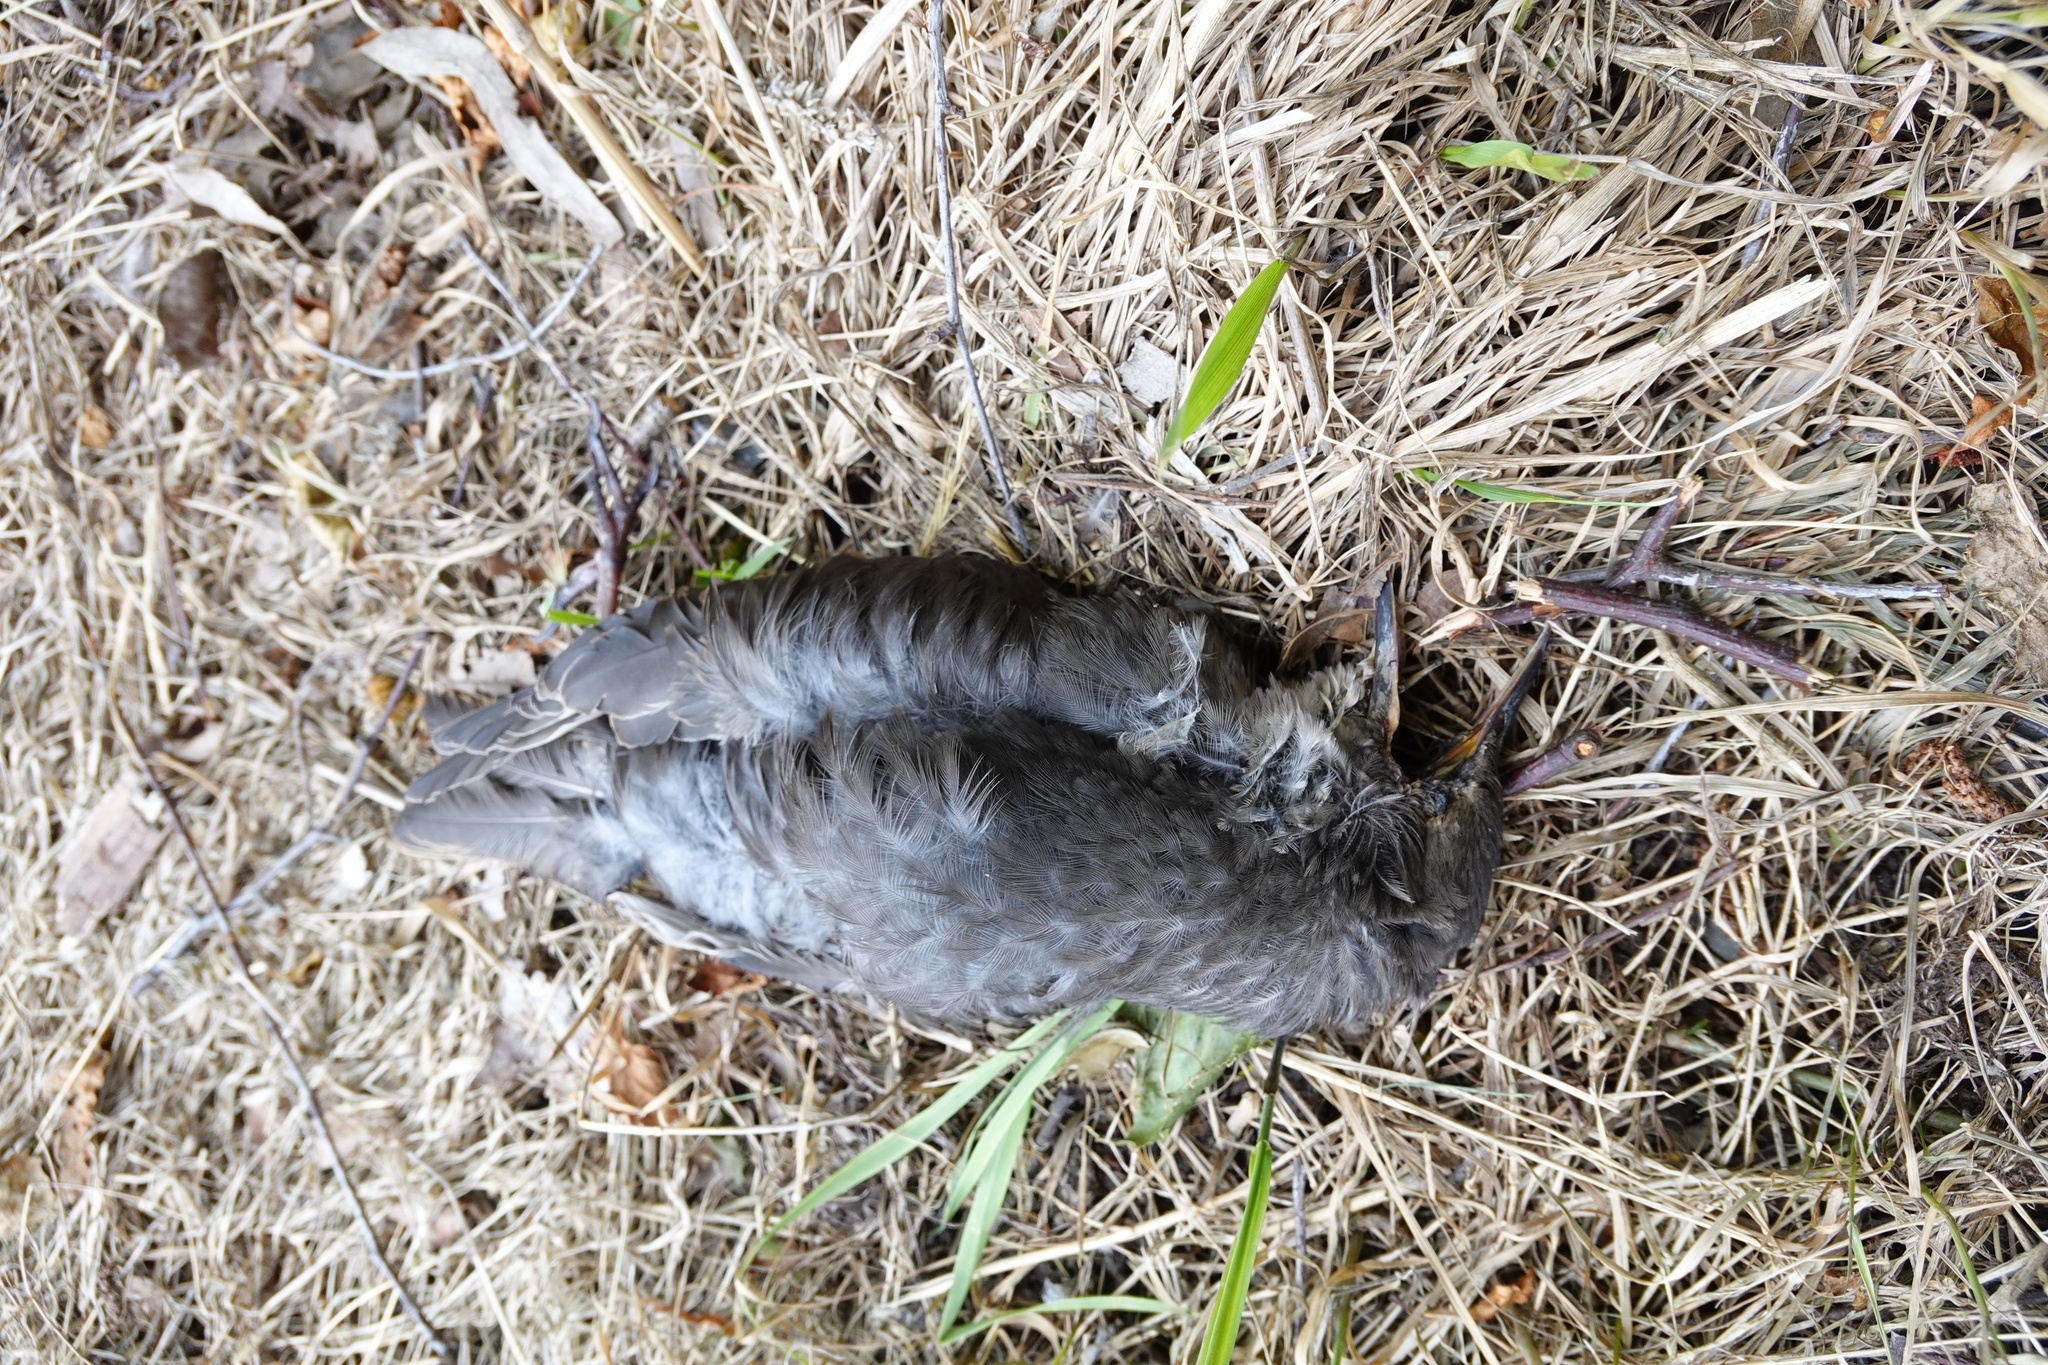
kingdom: Animalia
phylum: Chordata
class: Aves
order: Passeriformes
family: Sturnidae
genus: Sturnus
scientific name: Sturnus vulgaris
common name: Common starling
